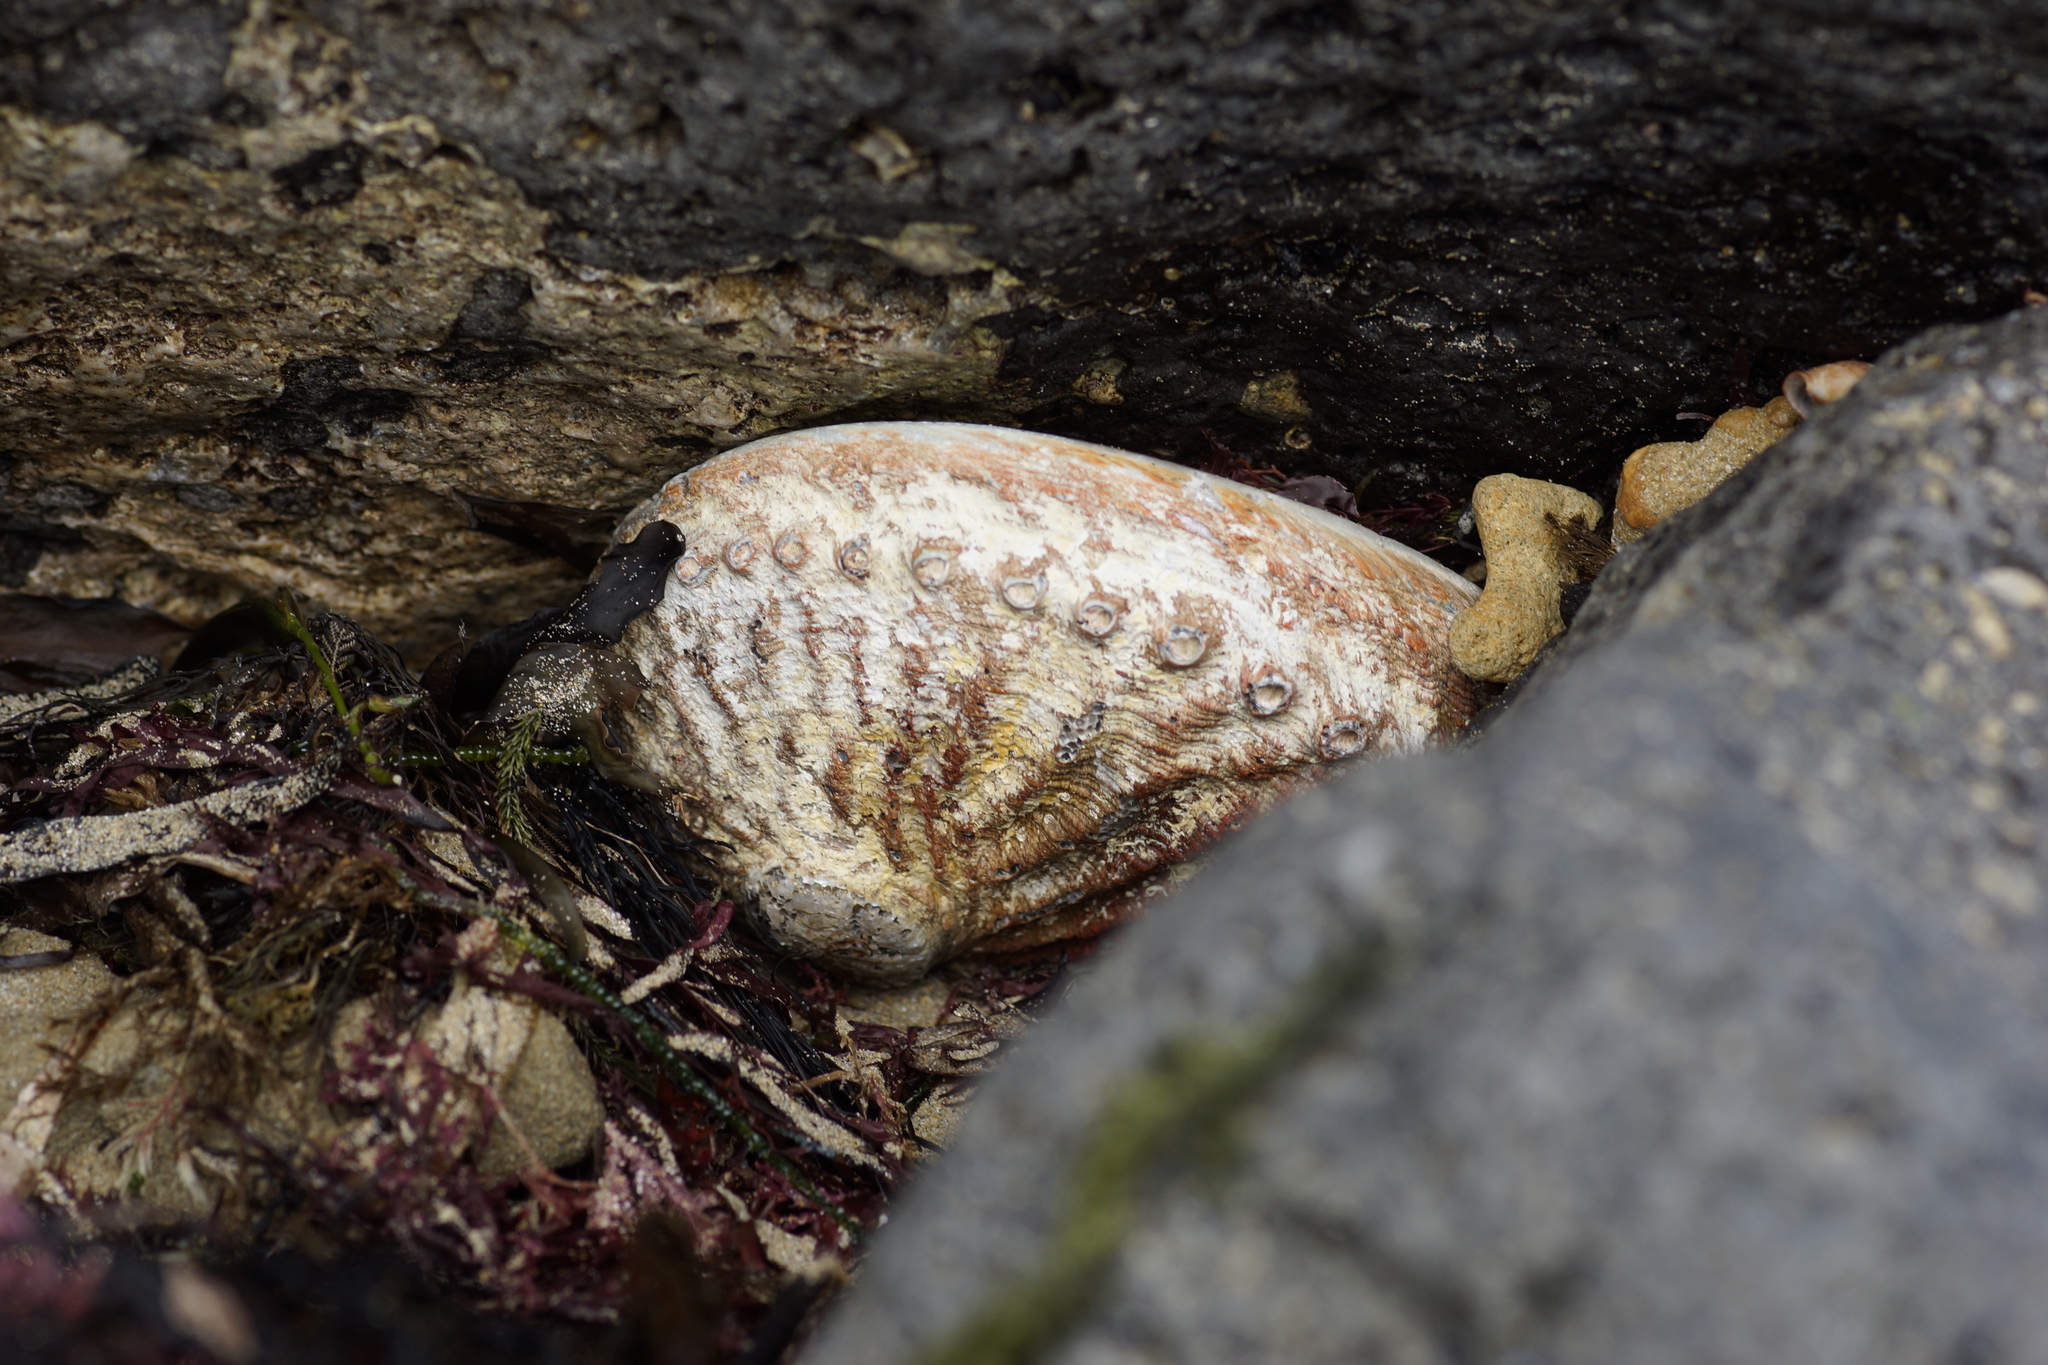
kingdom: Animalia
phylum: Mollusca
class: Gastropoda
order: Lepetellida
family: Haliotidae
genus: Haliotis
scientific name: Haliotis rubra
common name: Blacklip abalone
